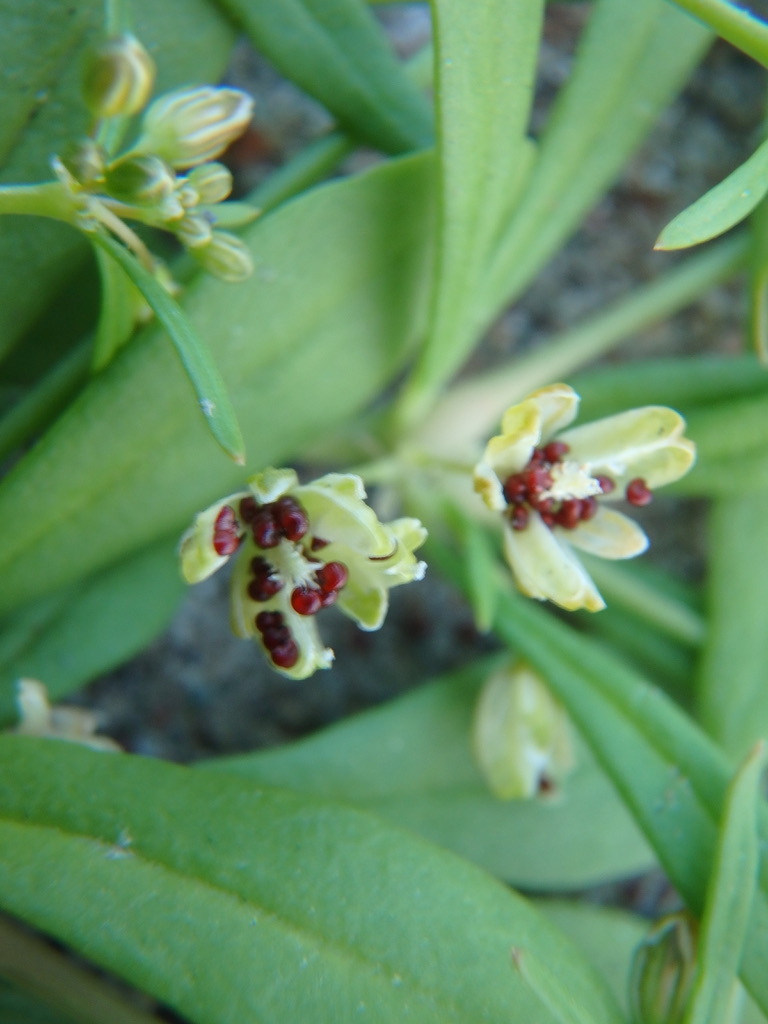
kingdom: Plantae
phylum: Tracheophyta
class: Magnoliopsida
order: Caryophyllales
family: Molluginaceae
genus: Mollugo
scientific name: Mollugo verticillata
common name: Green carpetweed
